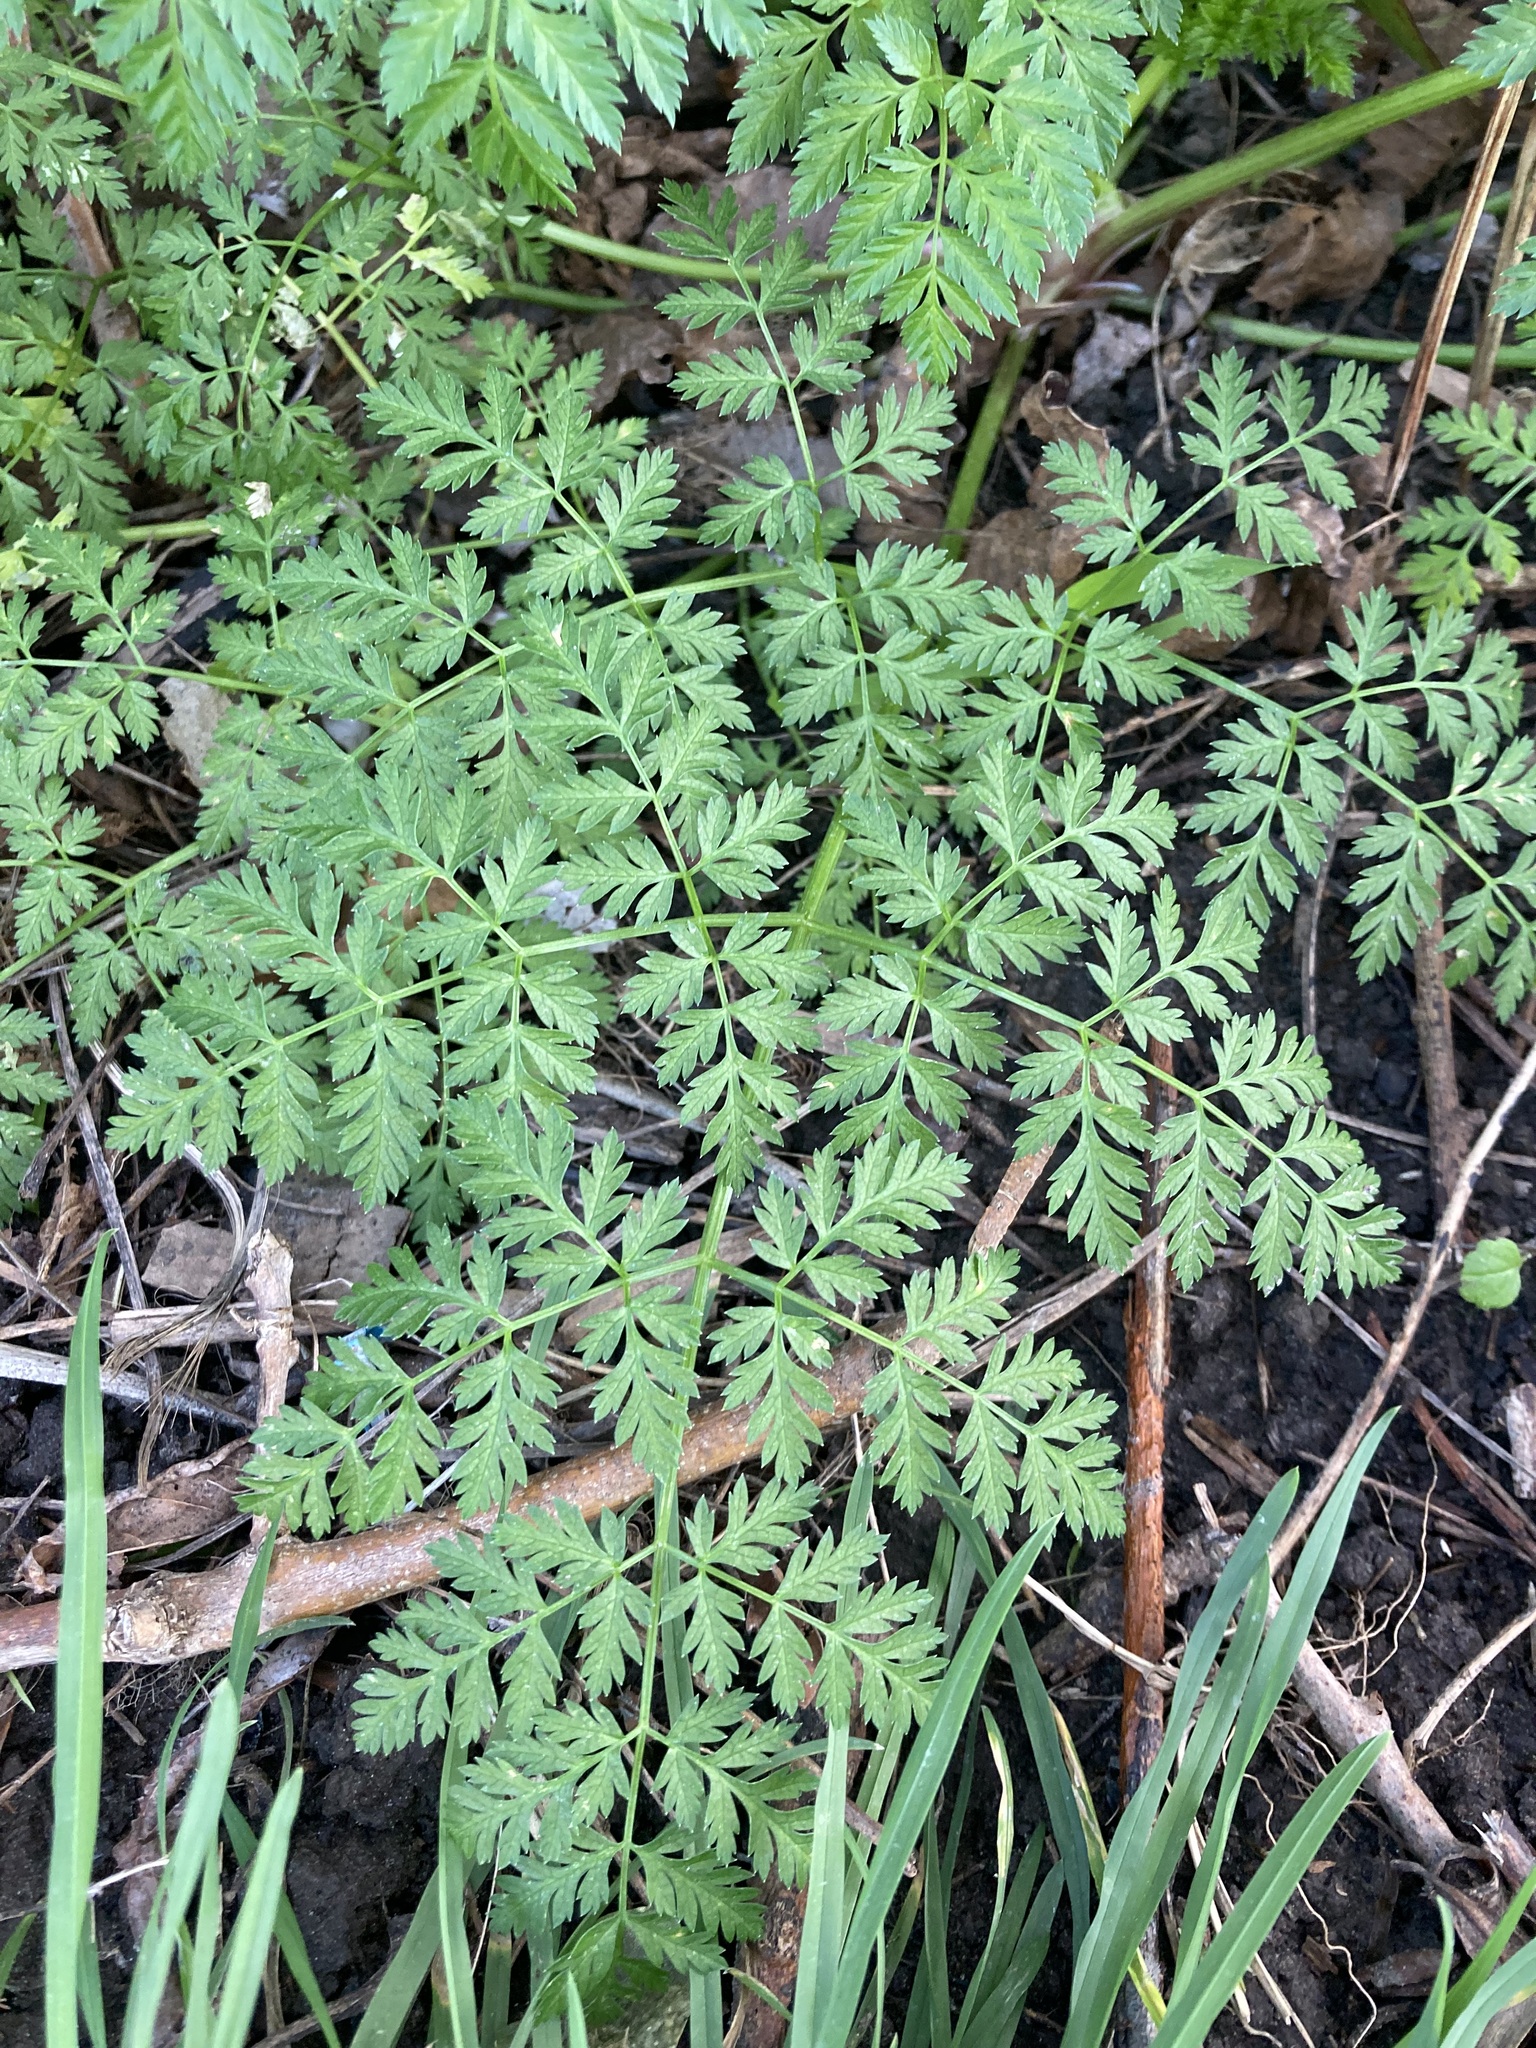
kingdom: Plantae
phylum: Tracheophyta
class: Magnoliopsida
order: Apiales
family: Apiaceae
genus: Conium
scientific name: Conium maculatum
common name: Hemlock
